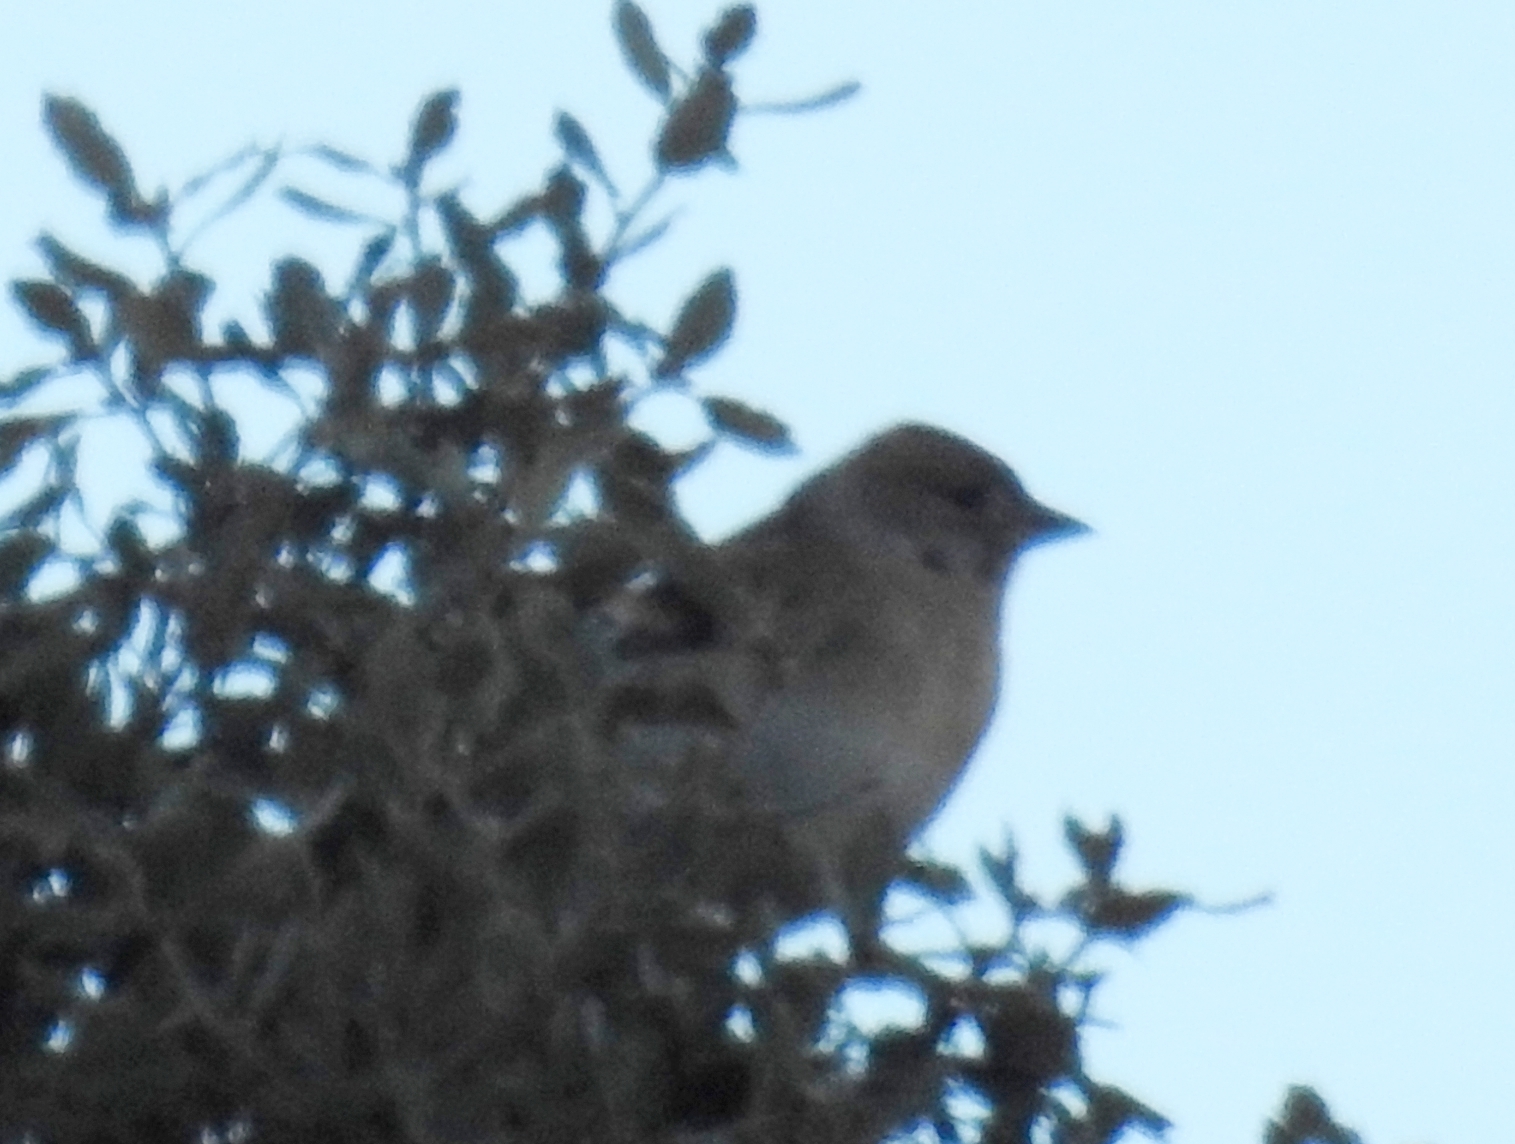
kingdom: Animalia
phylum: Chordata
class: Aves
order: Passeriformes
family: Fringillidae
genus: Fringilla
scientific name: Fringilla montifringilla
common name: Brambling
